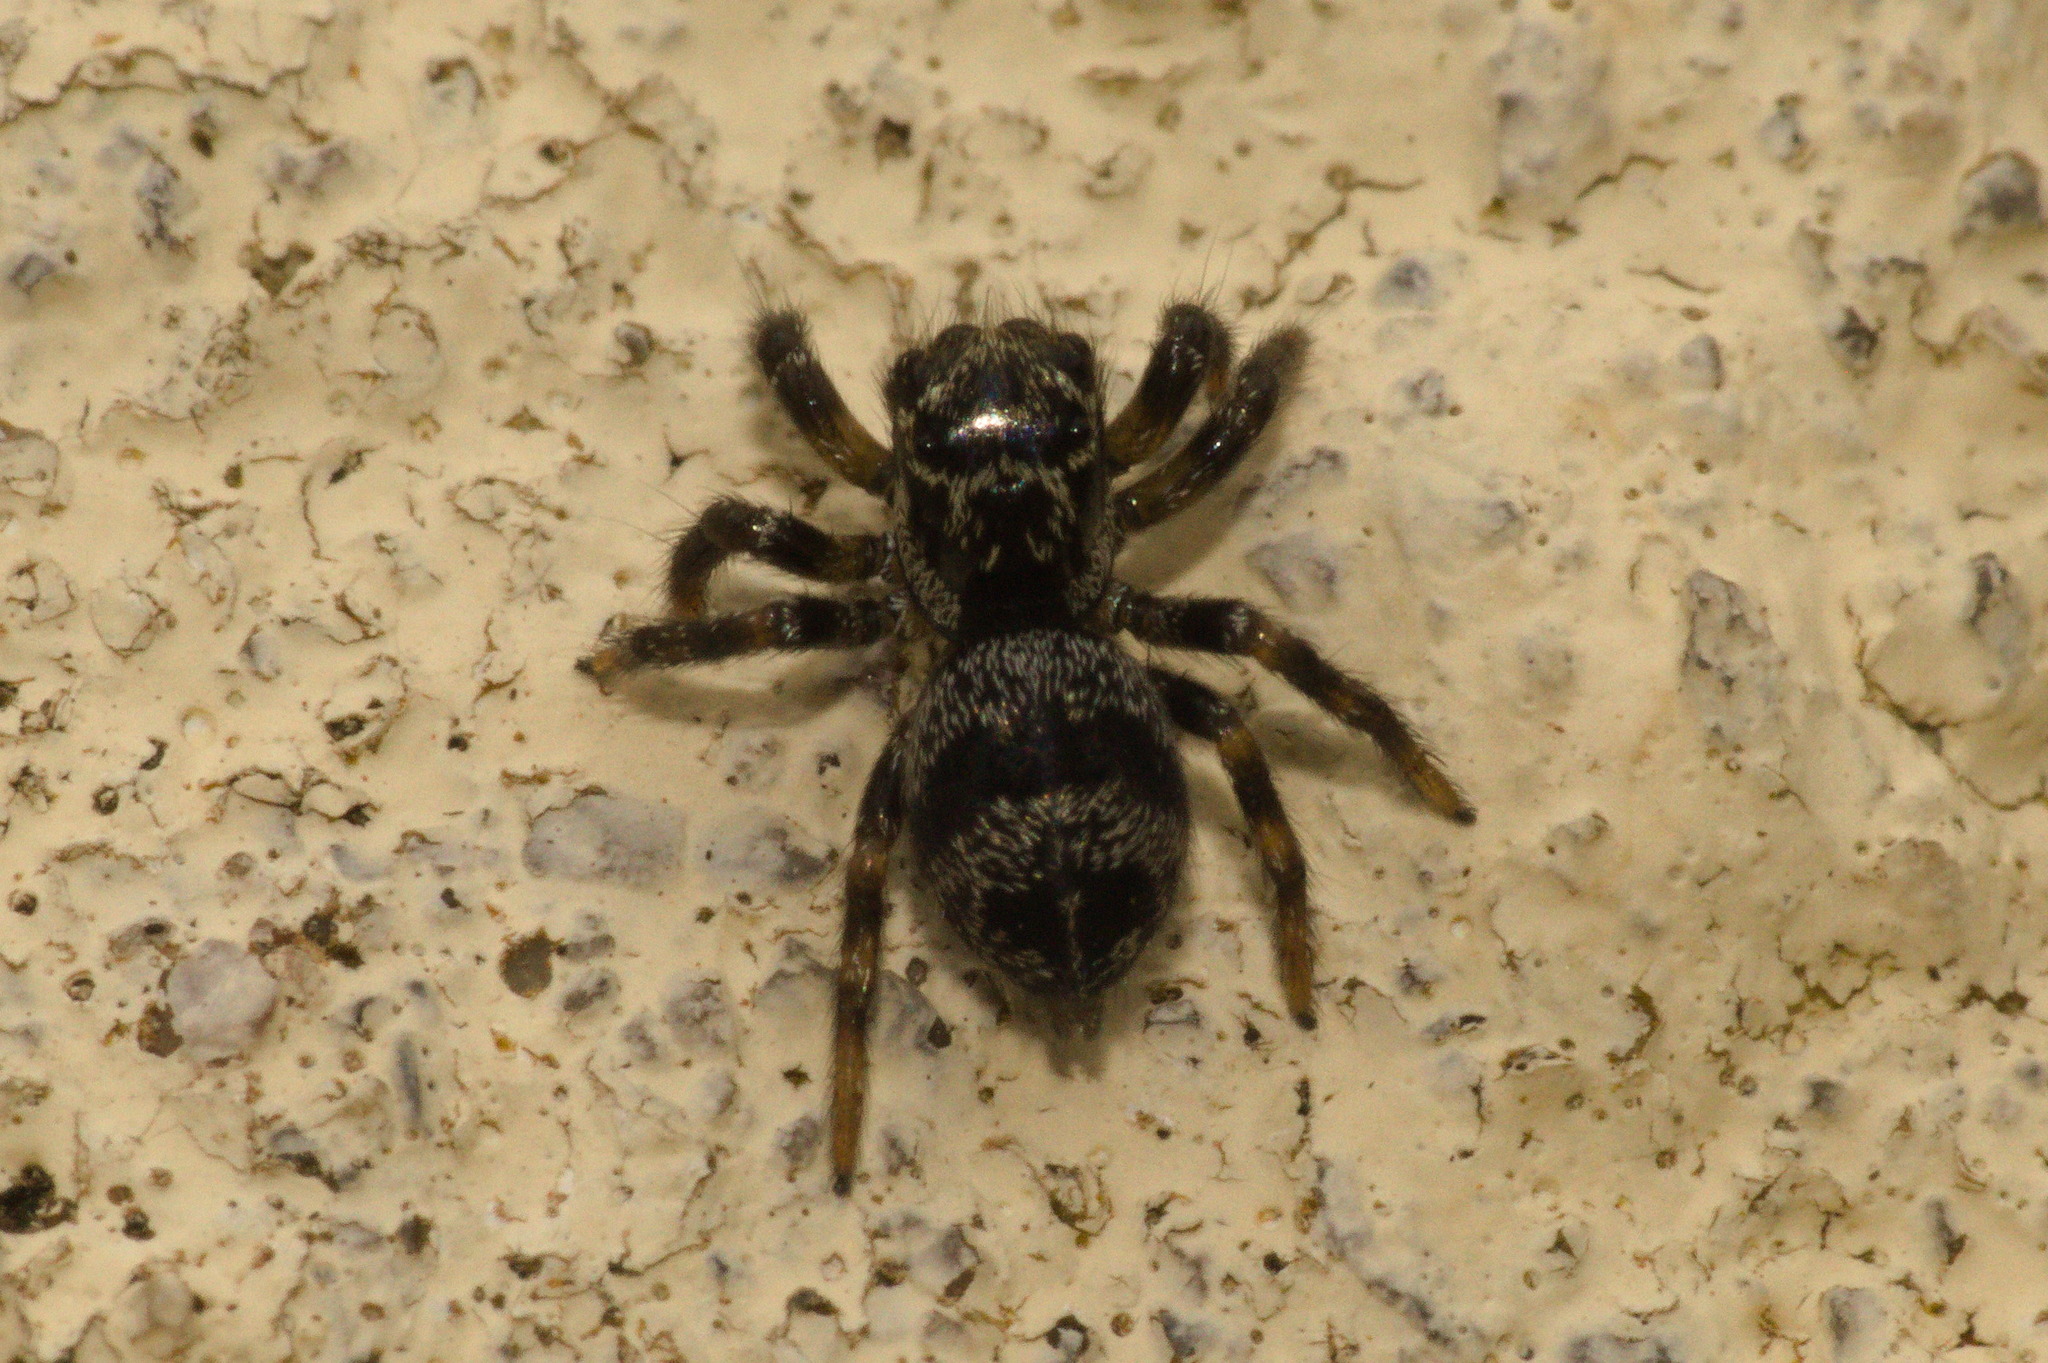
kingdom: Animalia
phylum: Arthropoda
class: Arachnida
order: Araneae
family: Salticidae
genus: Corythalia
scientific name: Corythalia conferta
